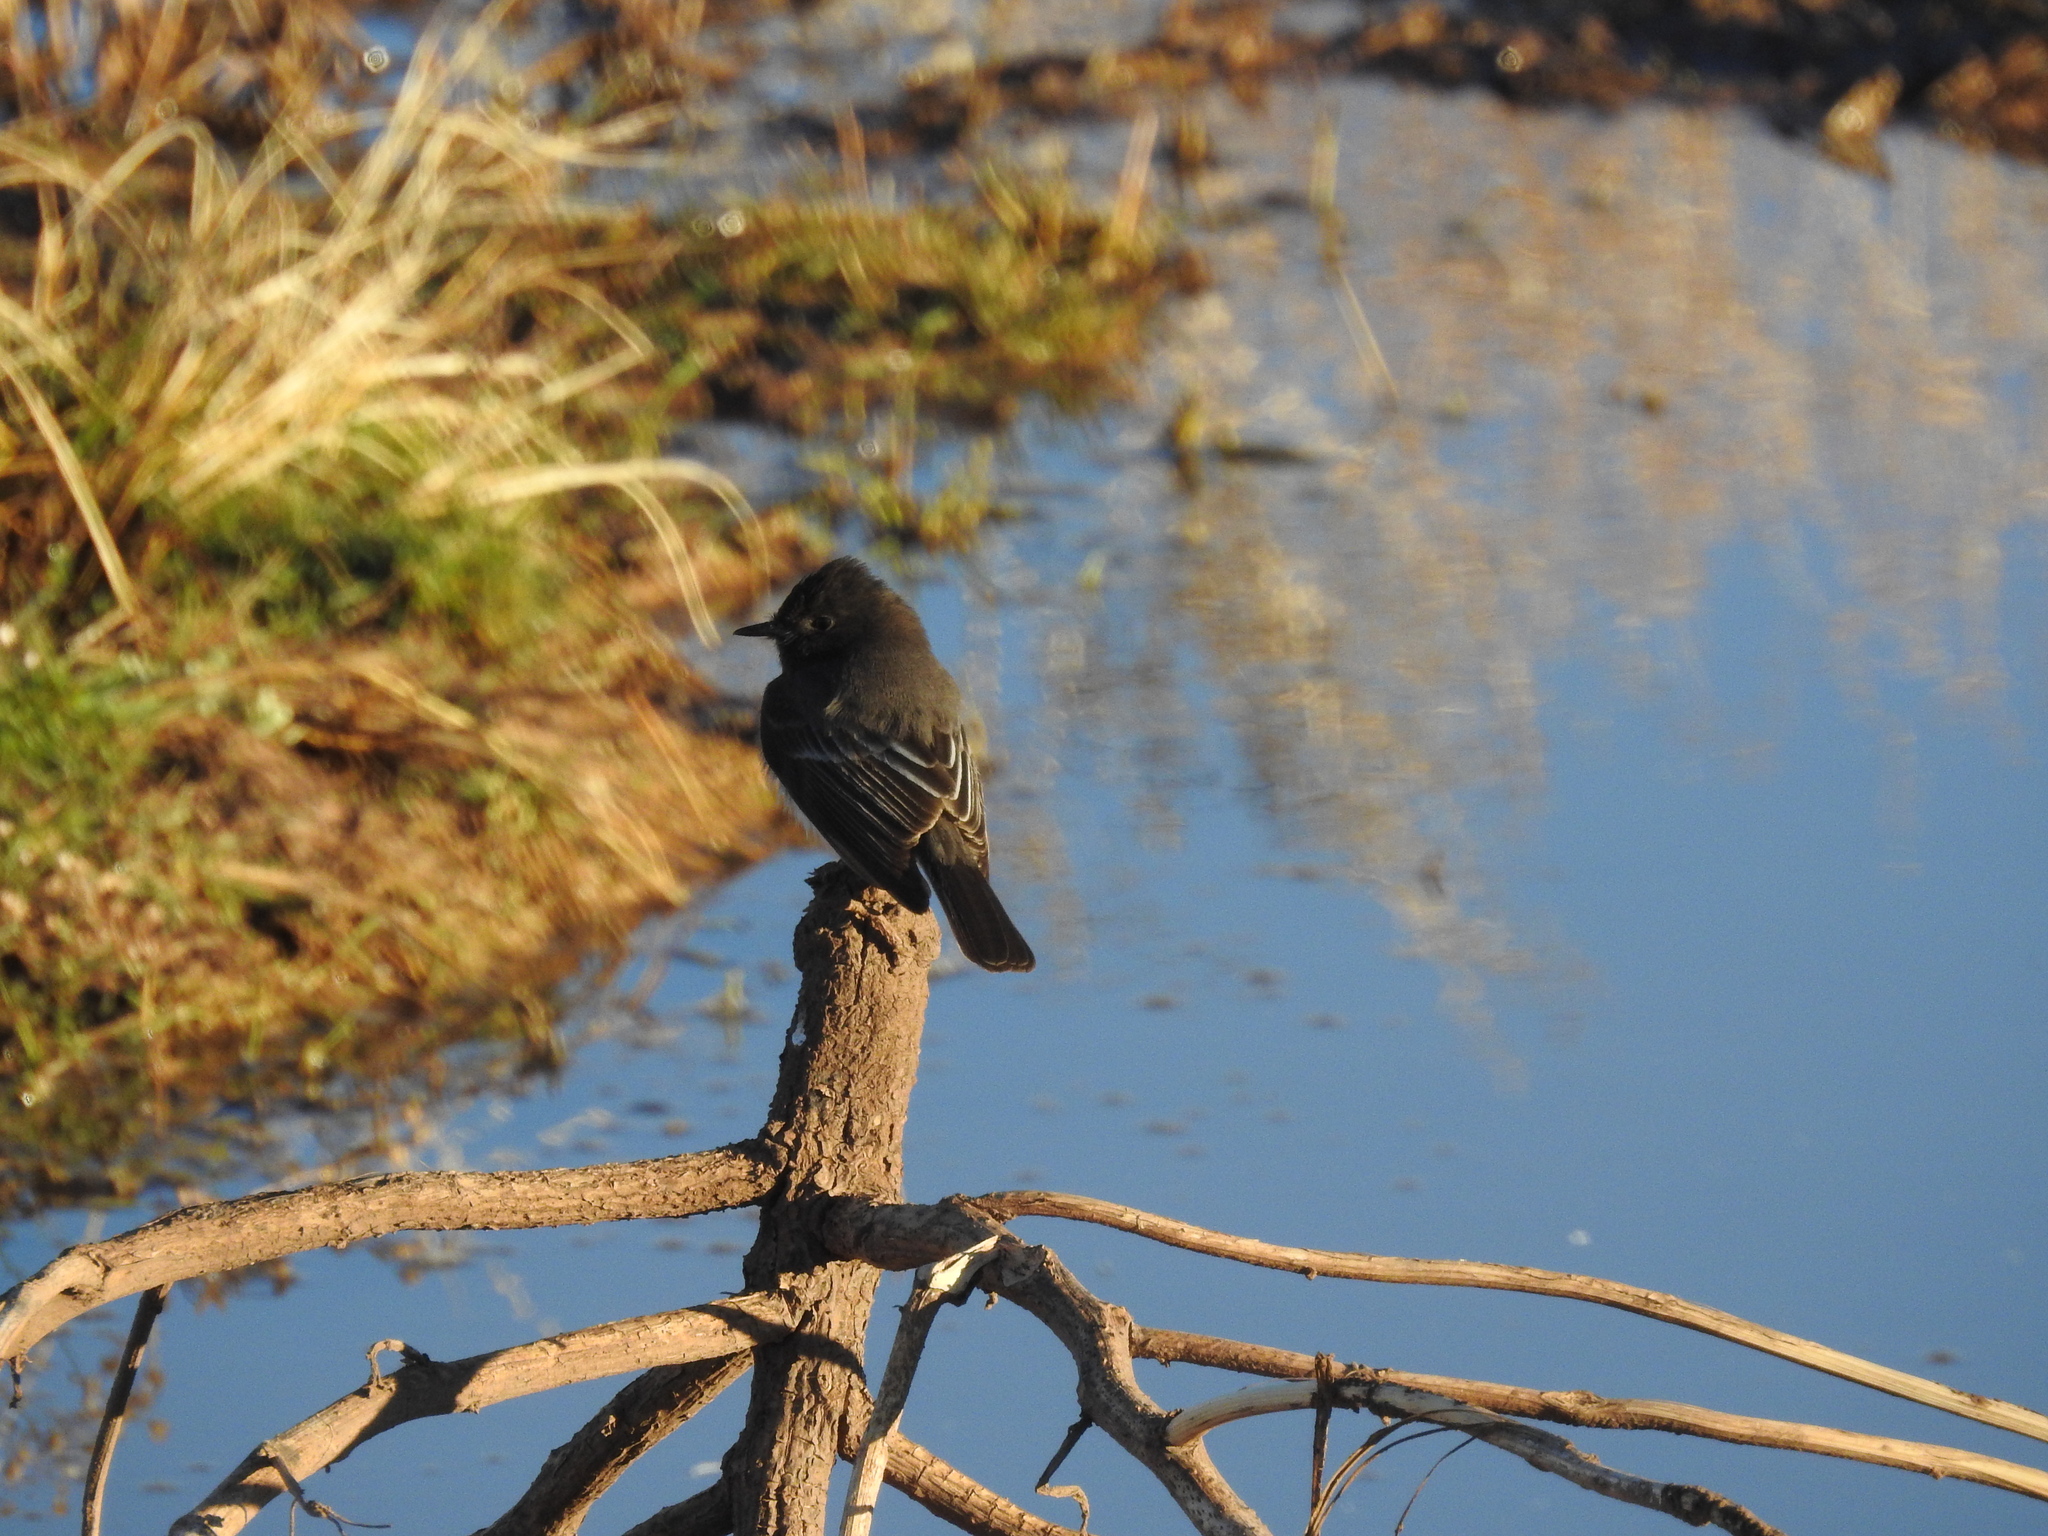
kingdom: Animalia
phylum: Chordata
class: Aves
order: Passeriformes
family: Tyrannidae
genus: Sayornis
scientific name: Sayornis nigricans
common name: Black phoebe
